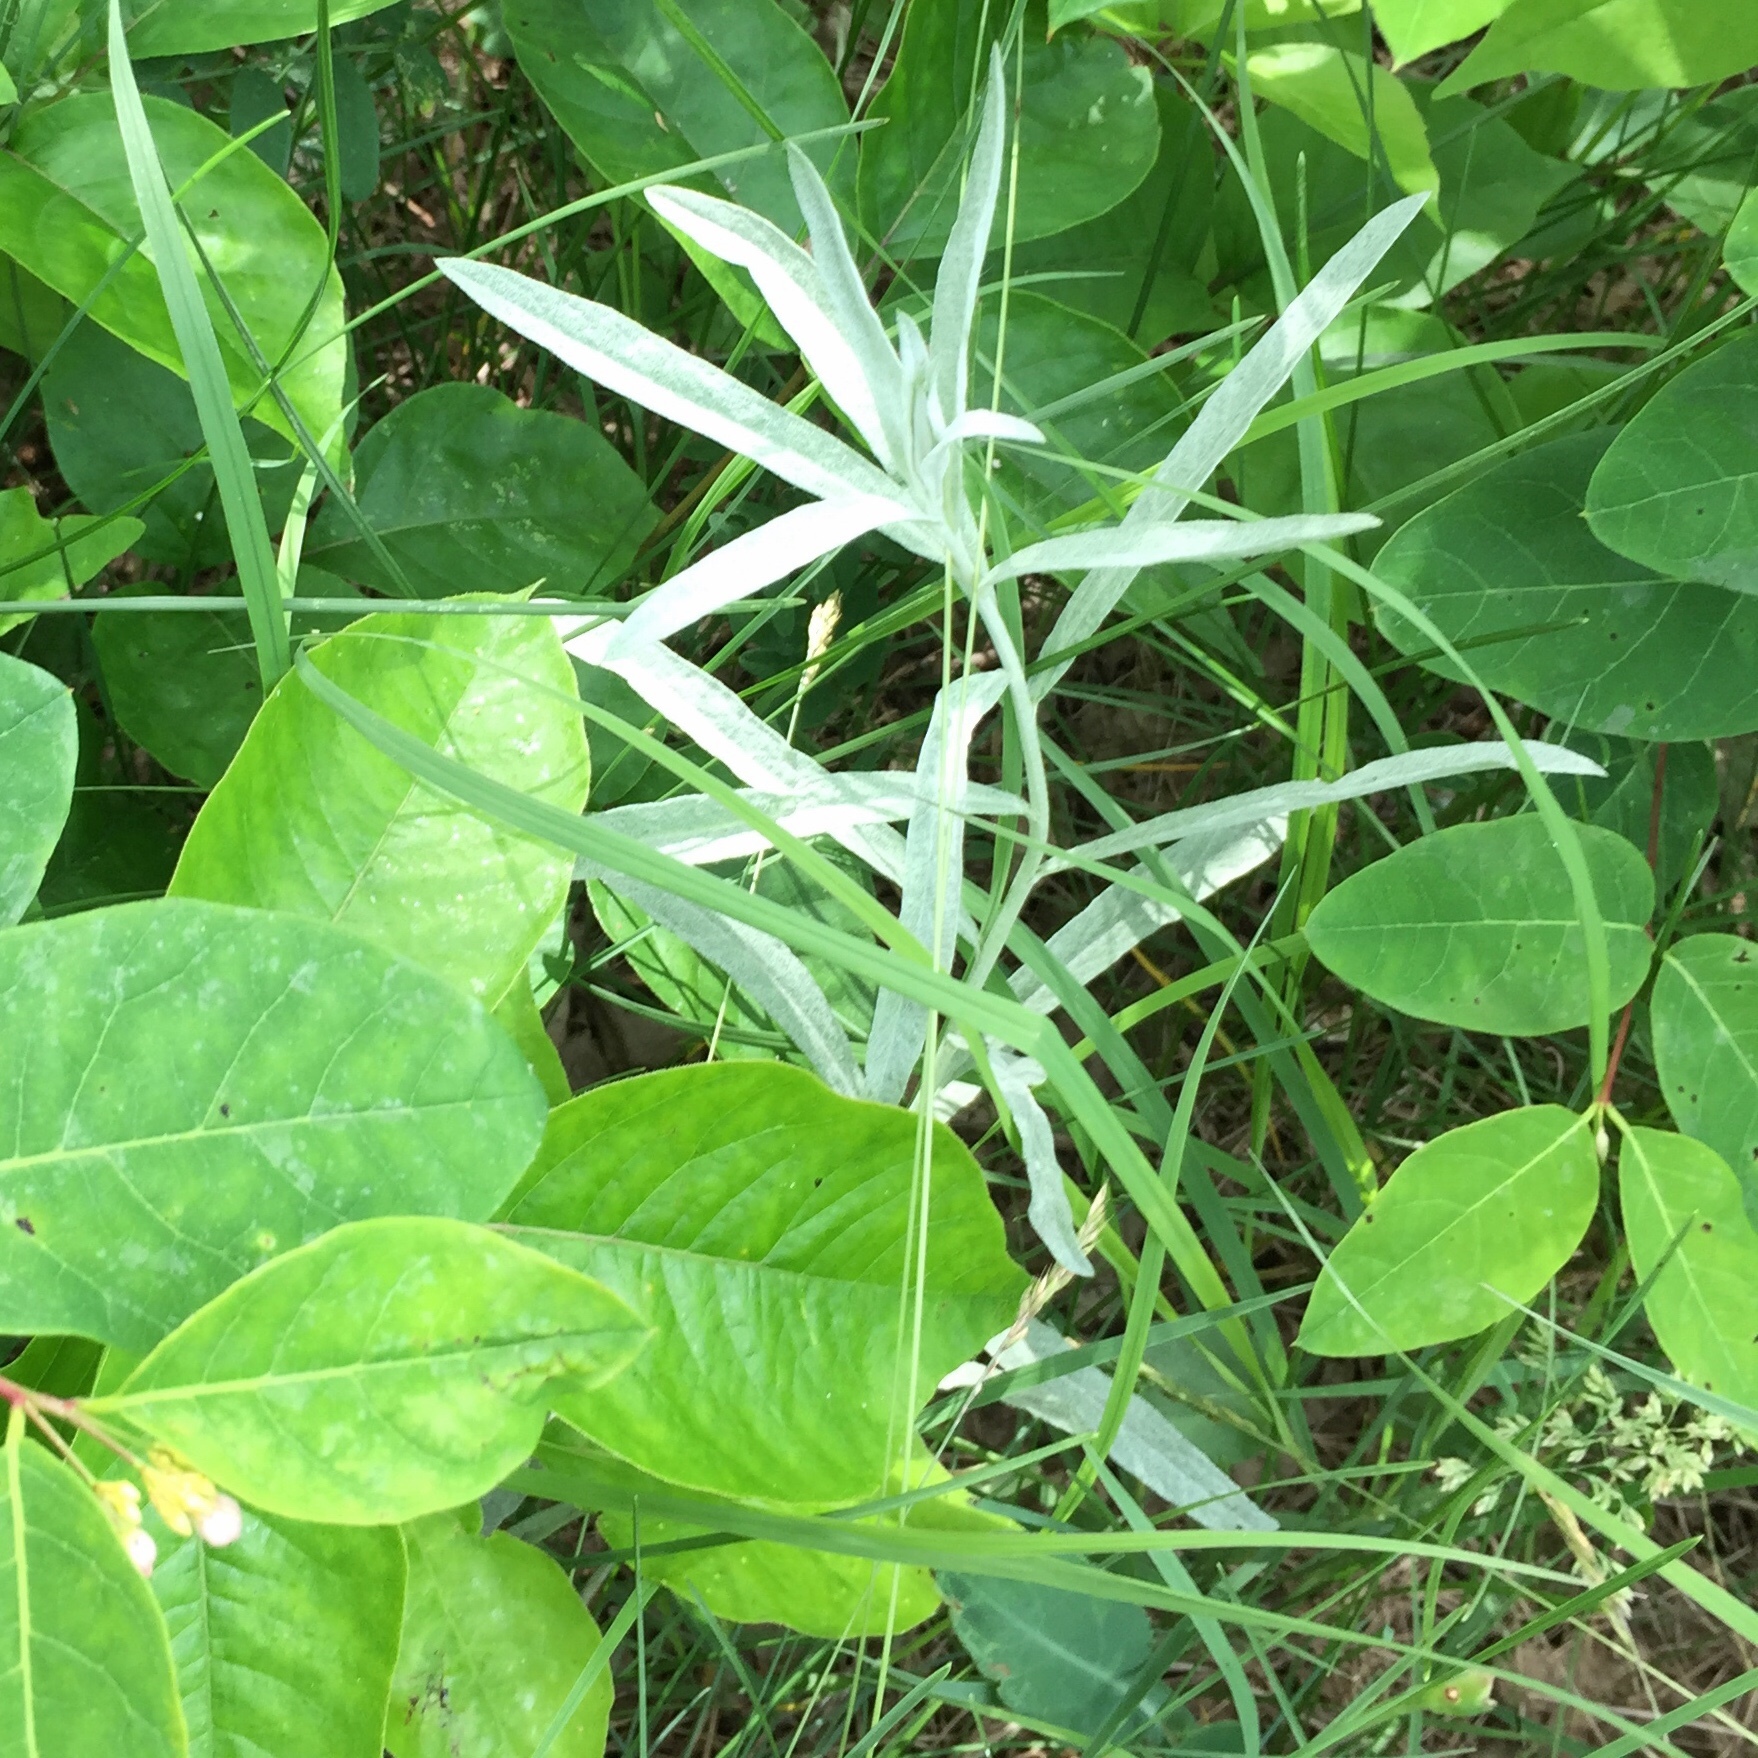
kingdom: Plantae
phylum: Tracheophyta
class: Magnoliopsida
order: Asterales
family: Asteraceae
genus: Artemisia
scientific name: Artemisia ludoviciana
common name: Western mugwort
